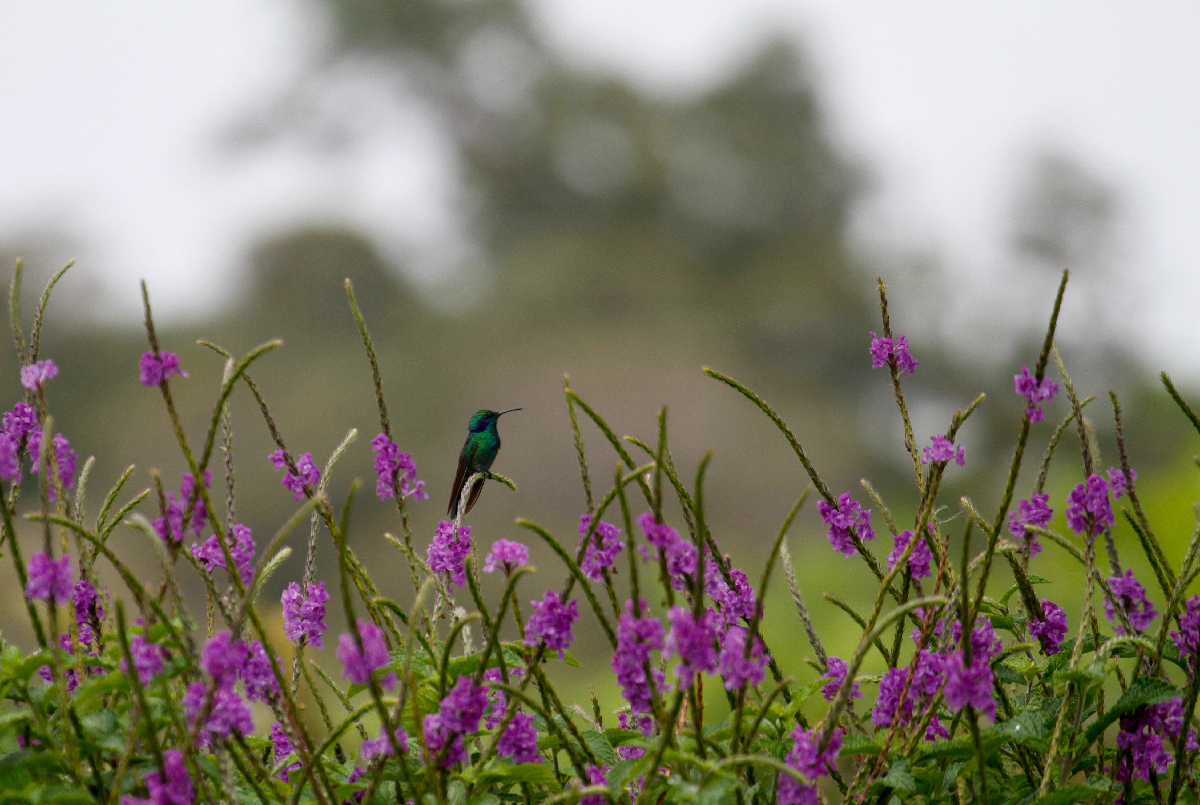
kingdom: Animalia
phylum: Chordata
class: Aves
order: Apodiformes
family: Trochilidae
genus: Colibri
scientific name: Colibri cyanotus
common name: Lesser violetear
